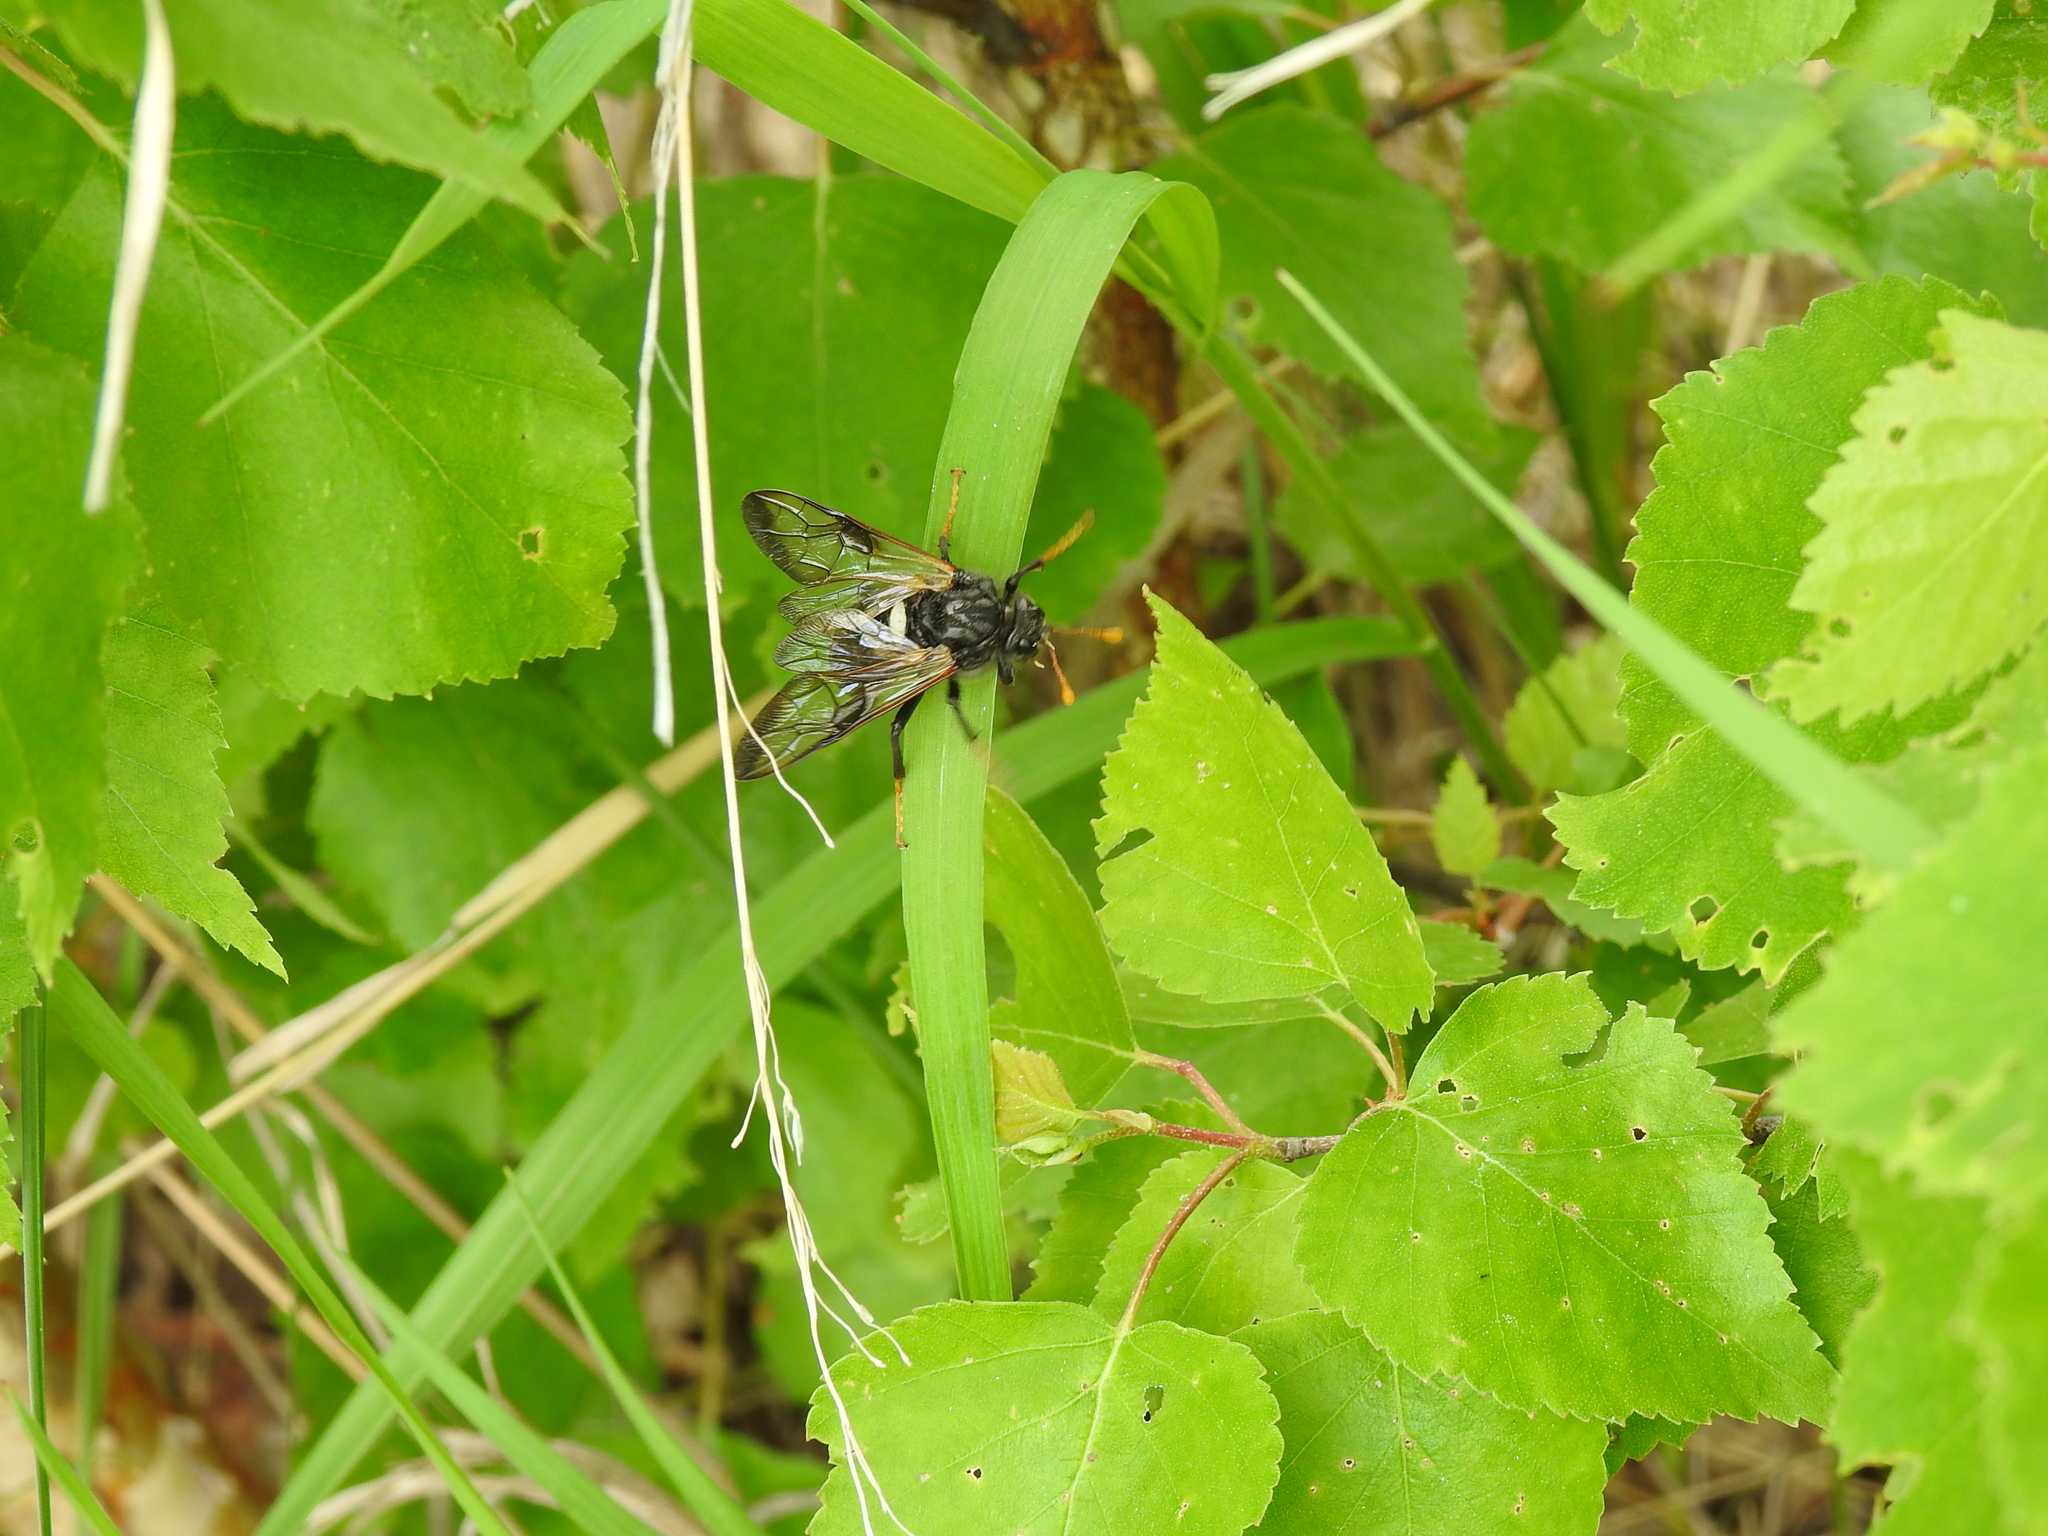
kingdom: Animalia
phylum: Arthropoda
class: Insecta
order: Hymenoptera
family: Cimbicidae
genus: Cimbex
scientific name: Cimbex femoratus
